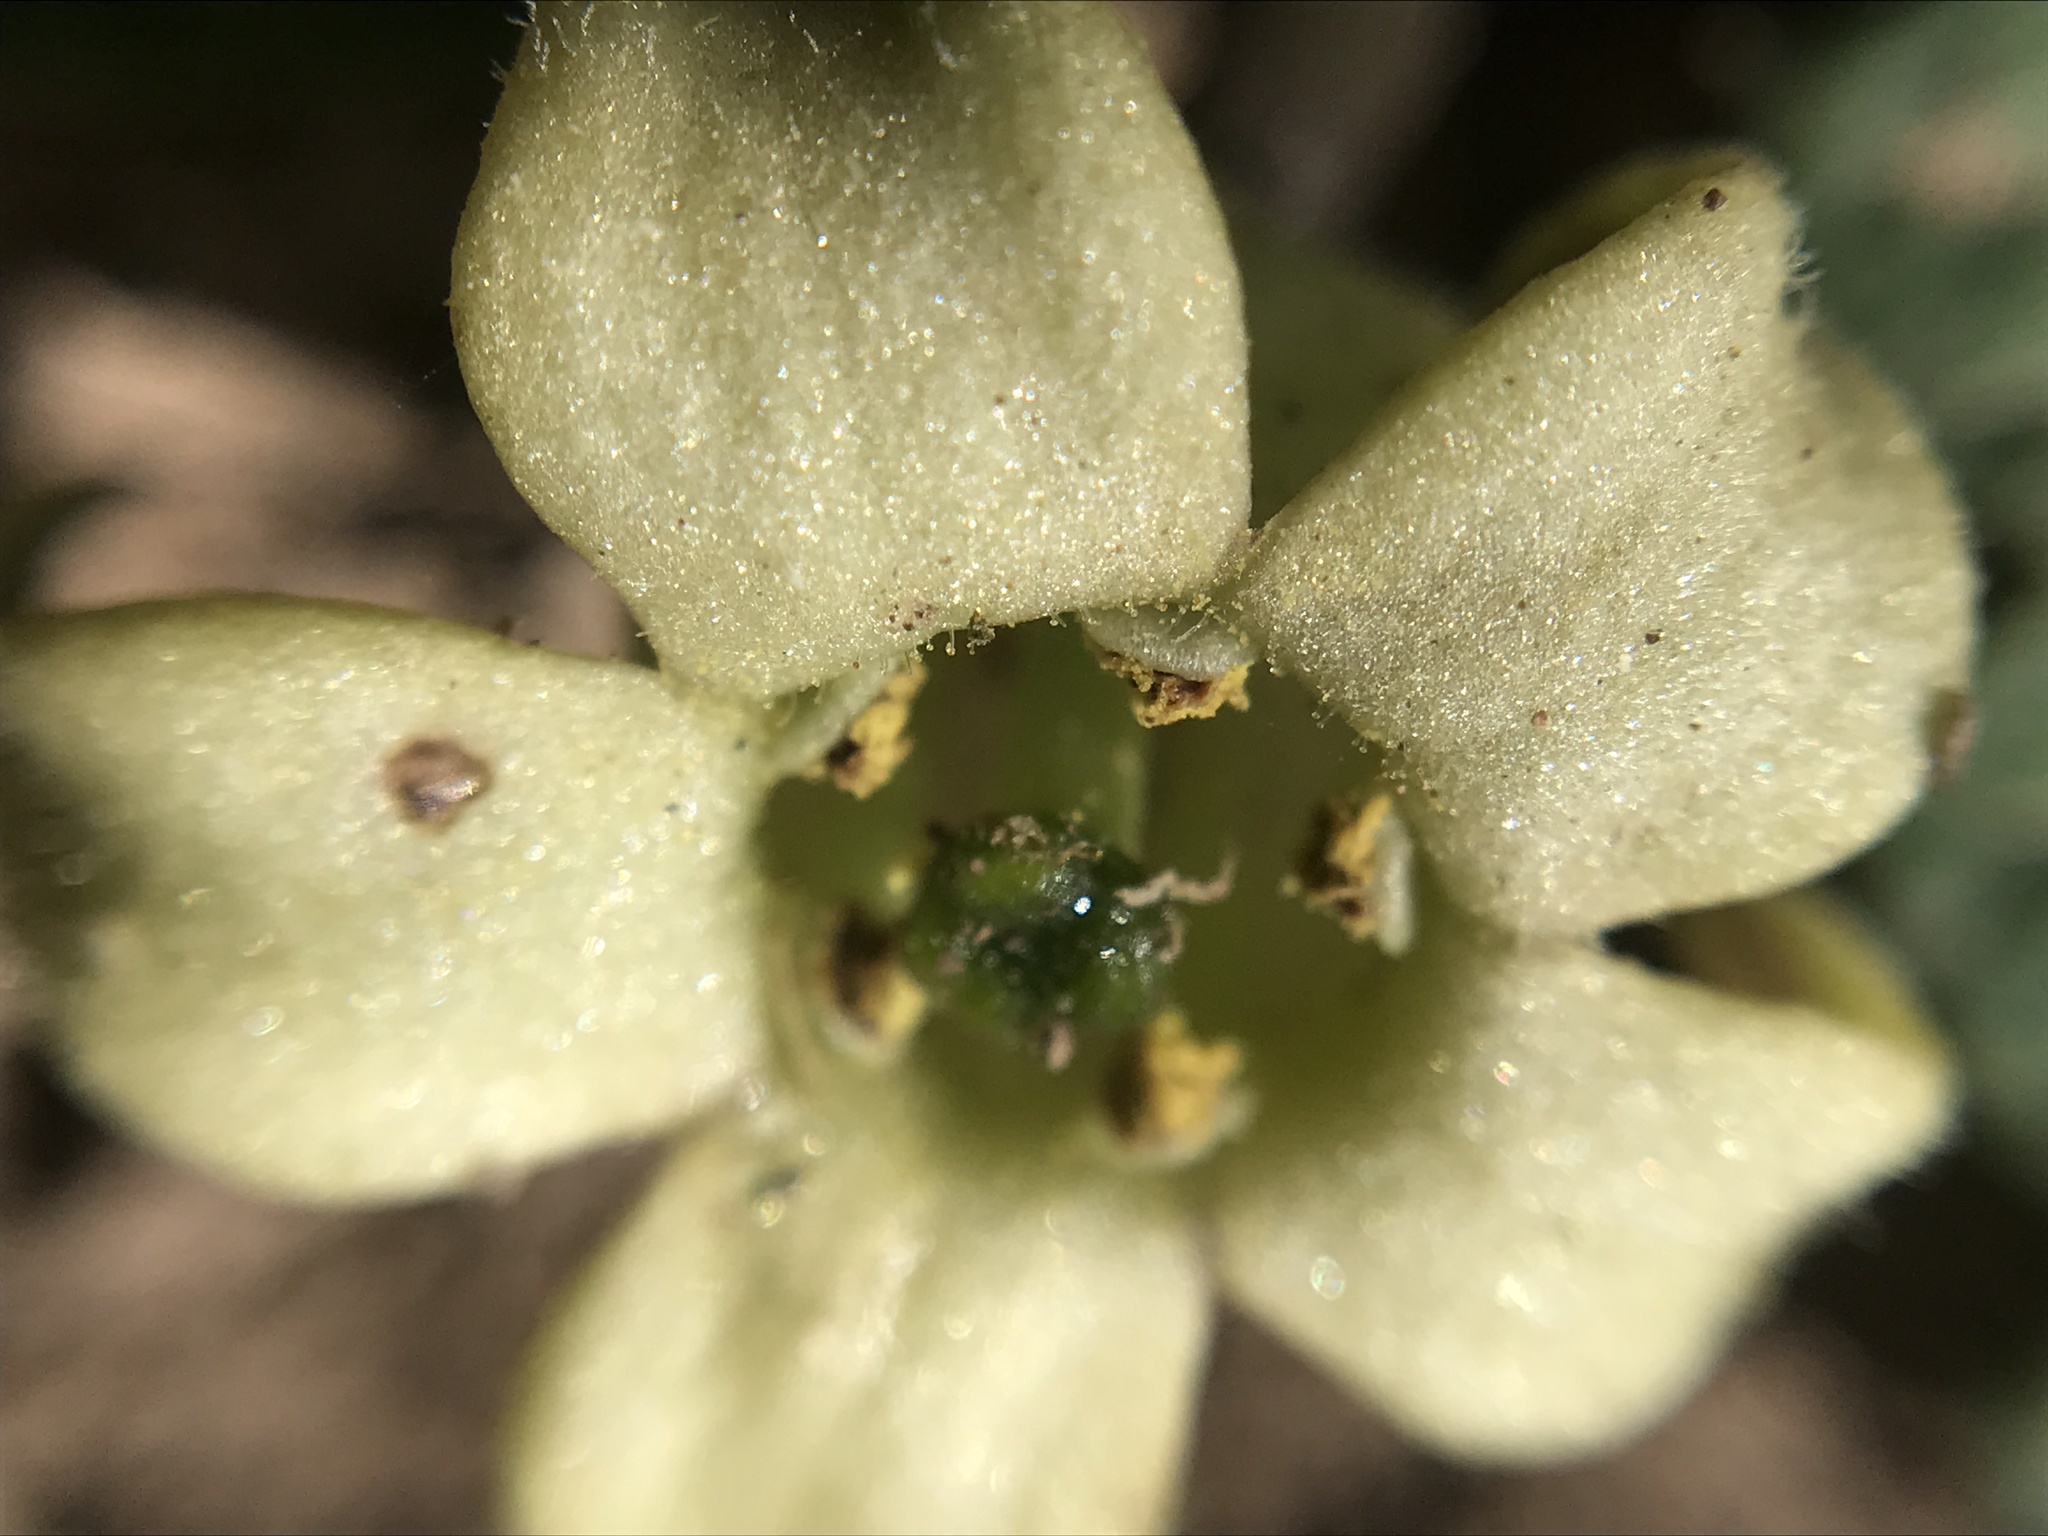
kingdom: Plantae
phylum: Tracheophyta
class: Magnoliopsida
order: Solanales
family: Solanaceae
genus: Jaborosa
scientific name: Jaborosa runcinata
